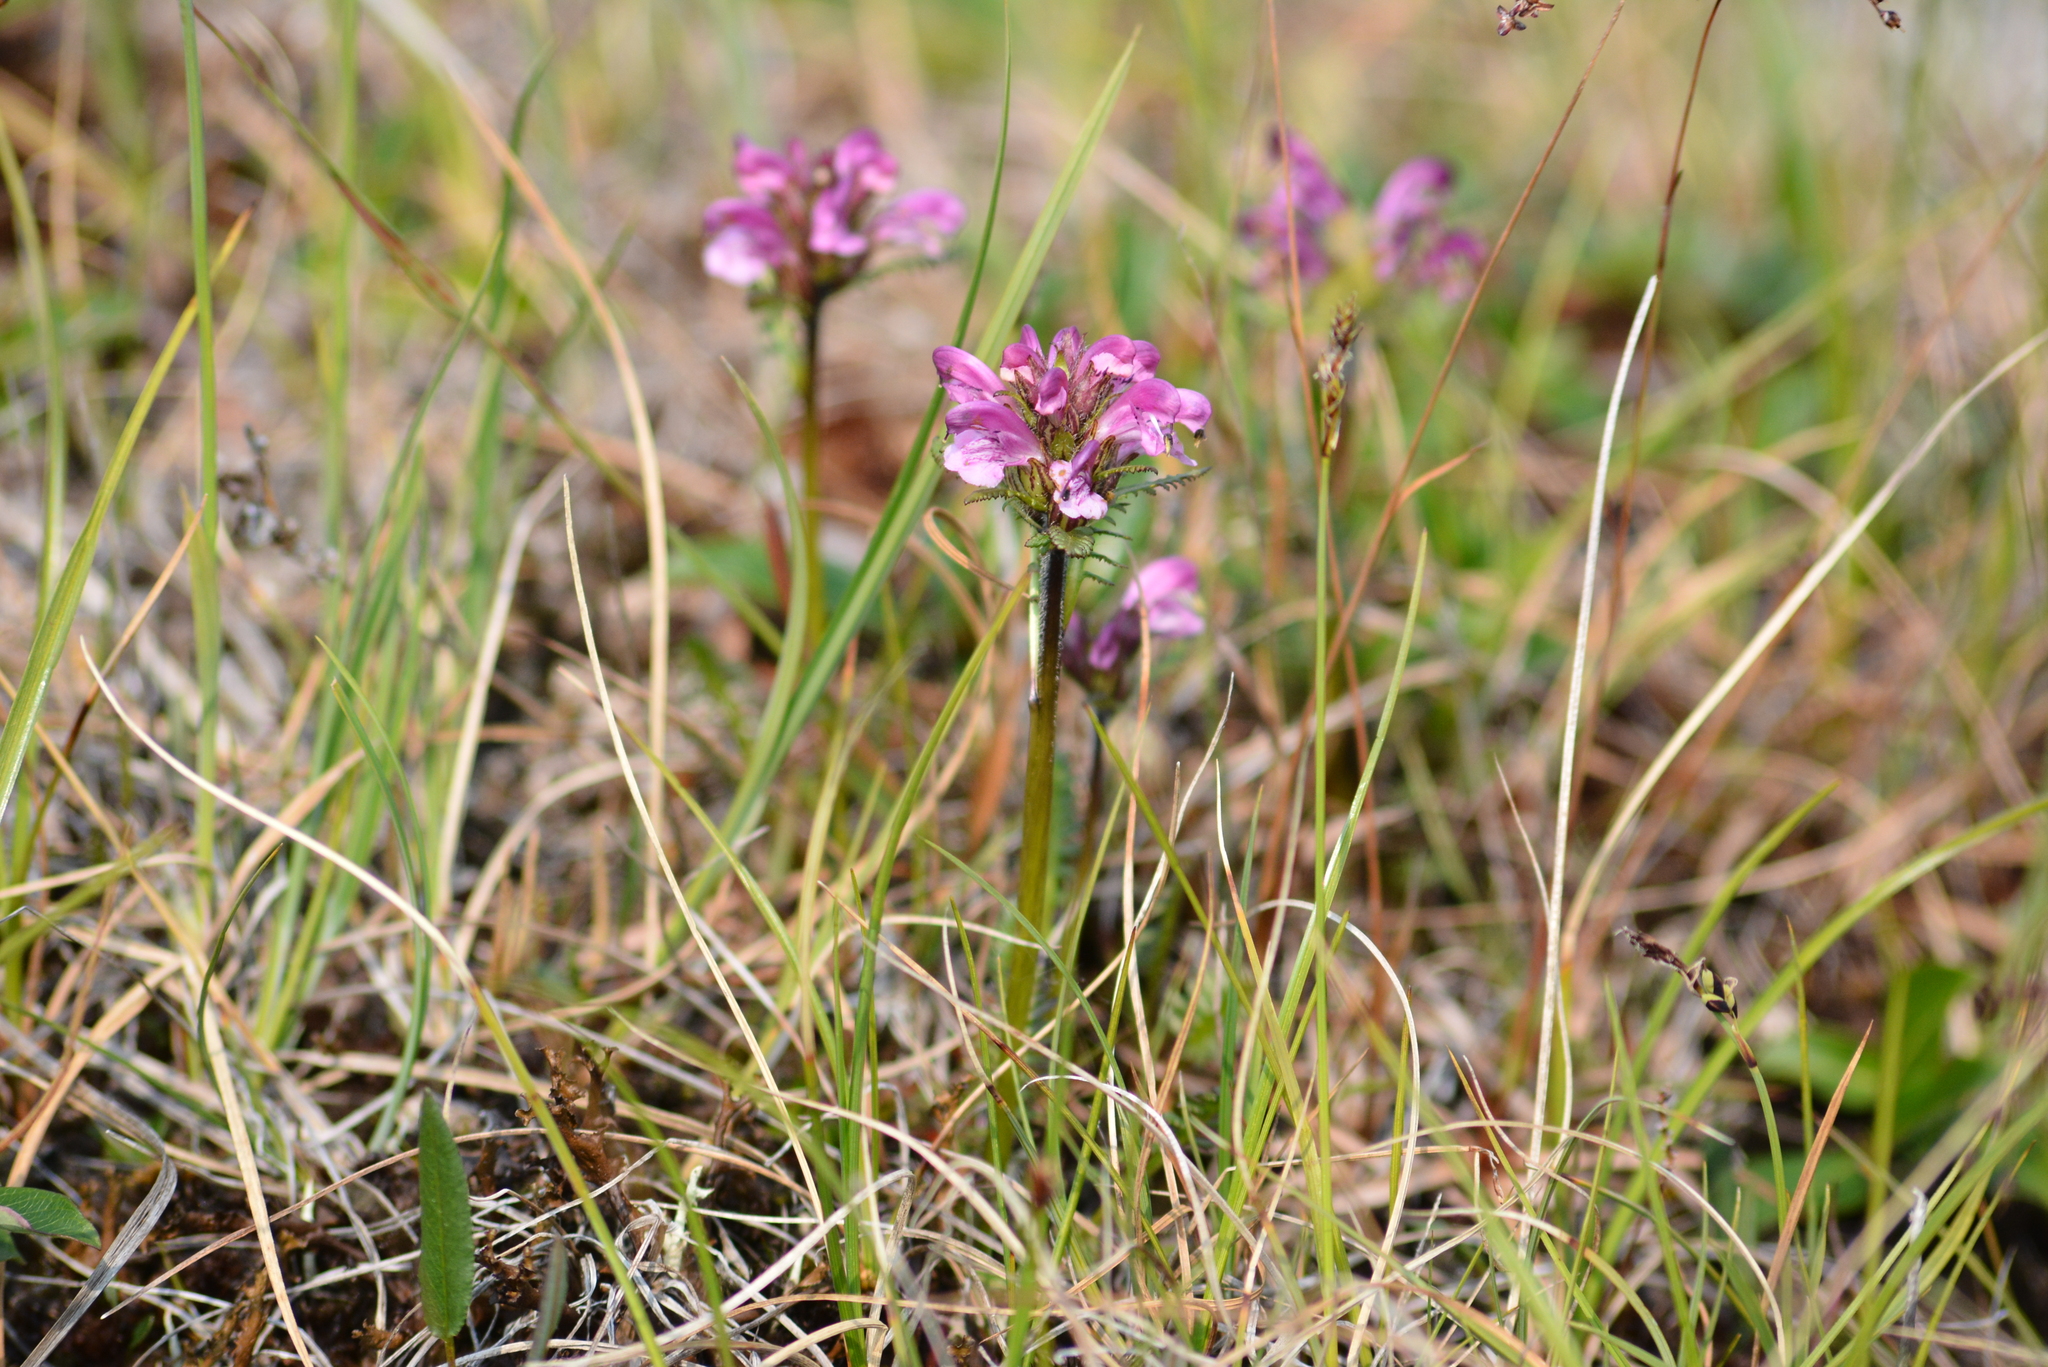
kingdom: Plantae
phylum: Tracheophyta
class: Magnoliopsida
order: Lamiales
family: Orobanchaceae
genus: Pedicularis
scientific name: Pedicularis sudetica
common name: Sudeten lousewort
